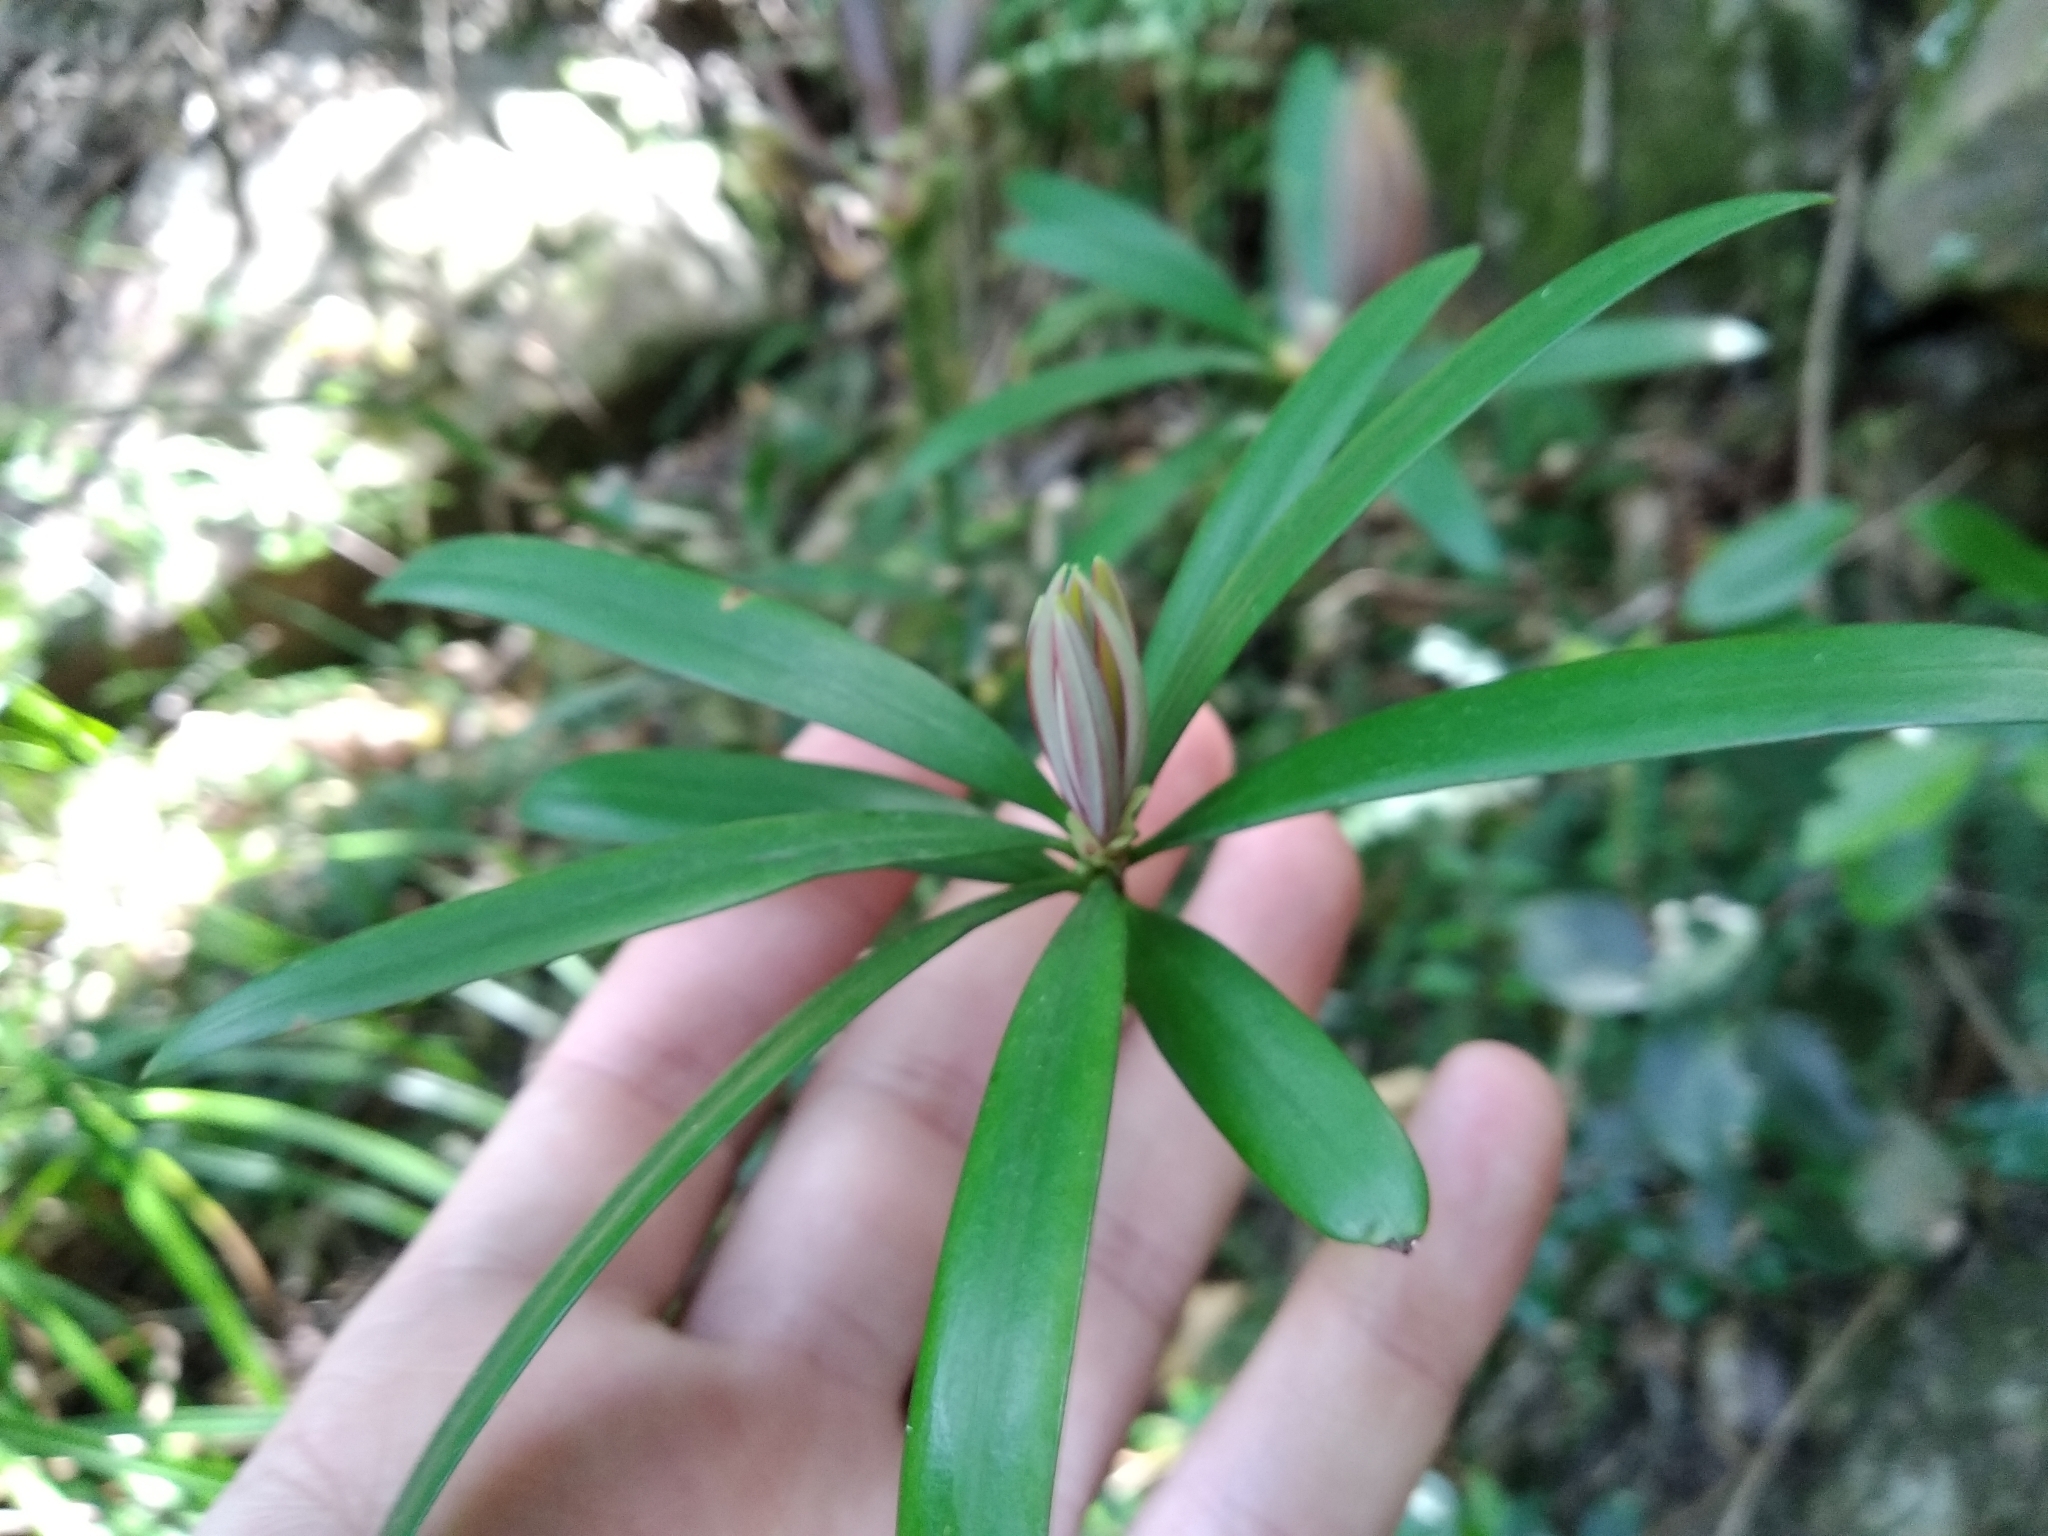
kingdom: Plantae
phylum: Tracheophyta
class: Pinopsida
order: Pinales
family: Podocarpaceae
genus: Podocarpus
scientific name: Podocarpus latifolius
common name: True yellowwood
